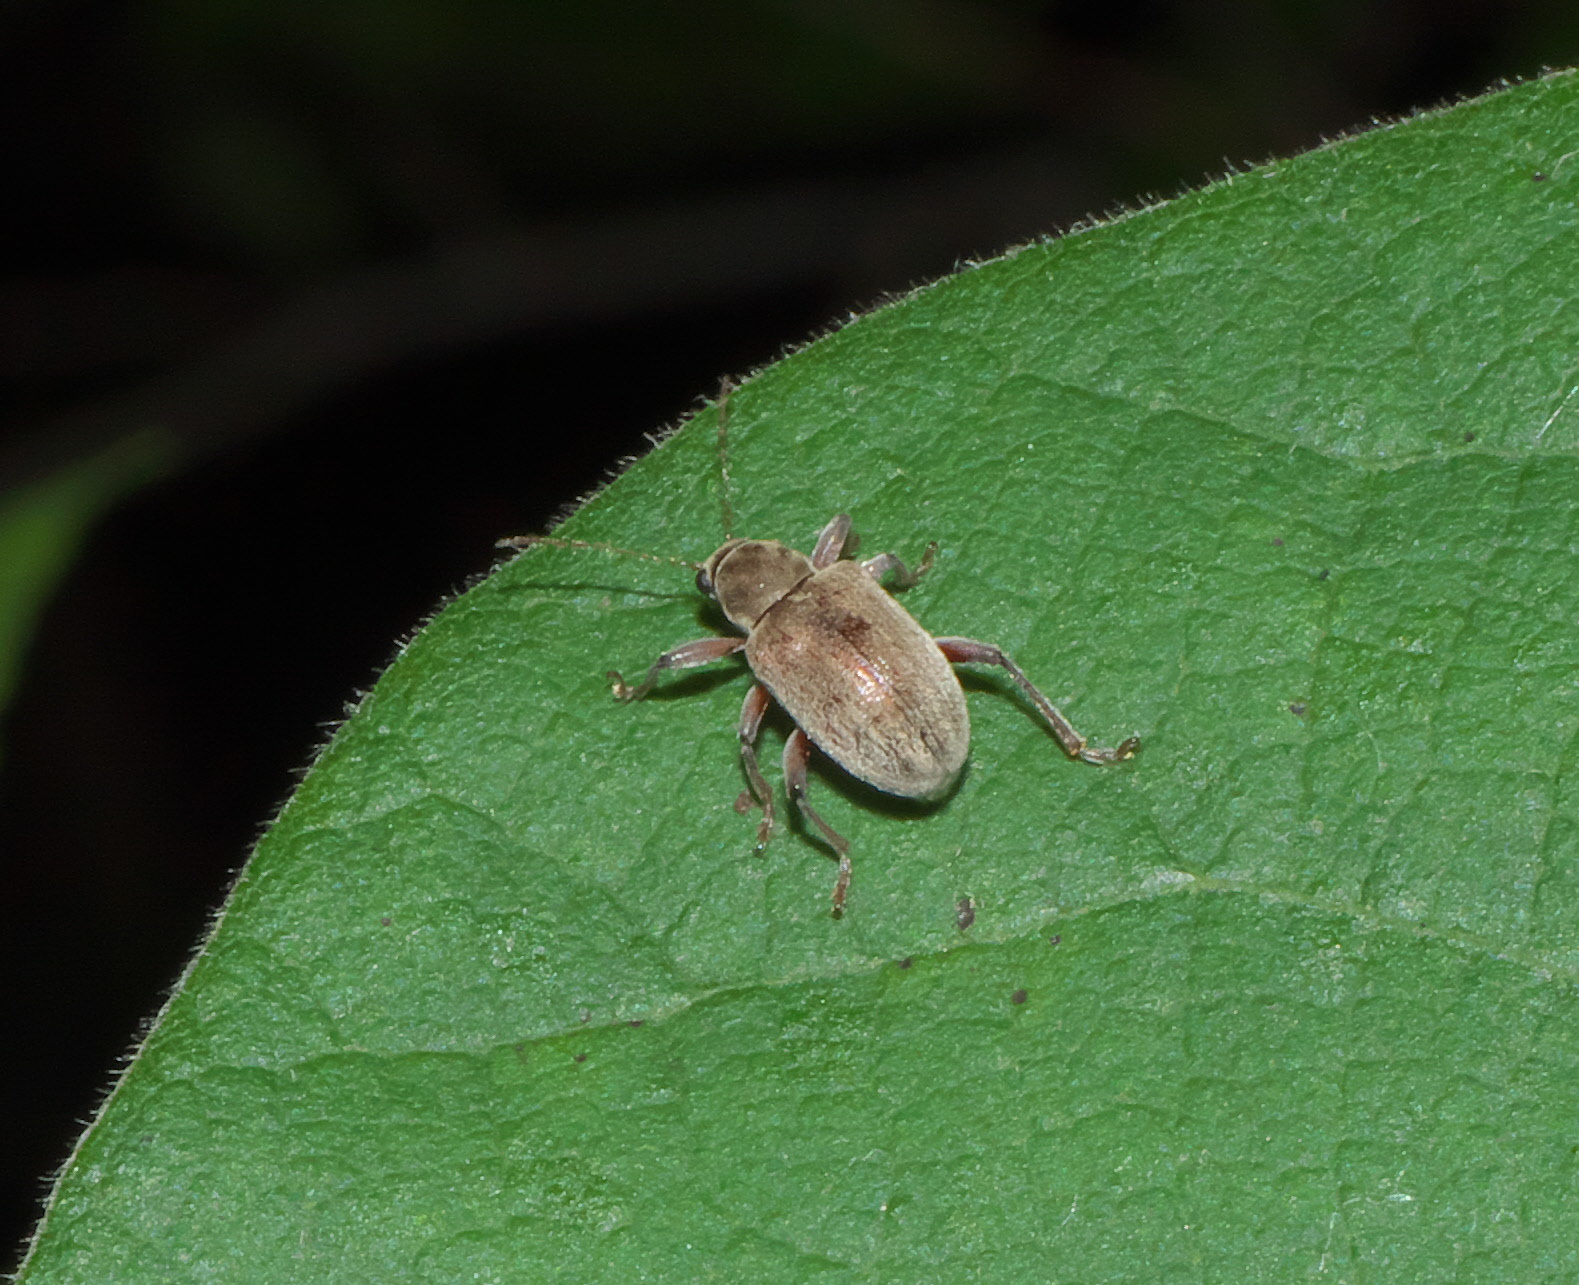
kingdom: Animalia
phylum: Arthropoda
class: Insecta
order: Coleoptera
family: Chrysomelidae
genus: Neofidia
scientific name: Neofidia
